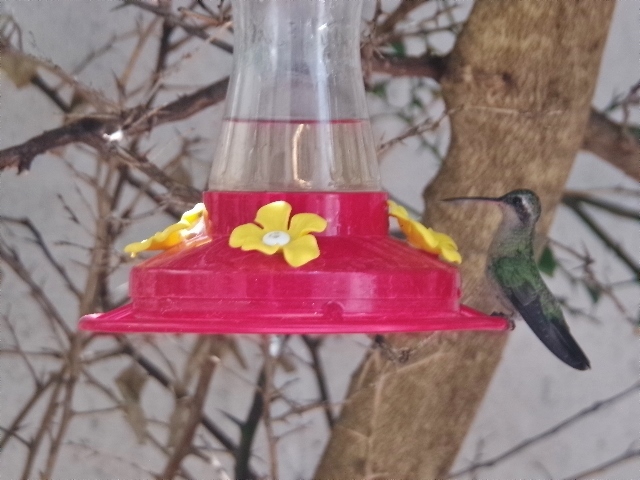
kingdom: Animalia
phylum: Chordata
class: Aves
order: Apodiformes
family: Trochilidae
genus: Cynanthus
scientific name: Cynanthus latirostris
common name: Broad-billed hummingbird
